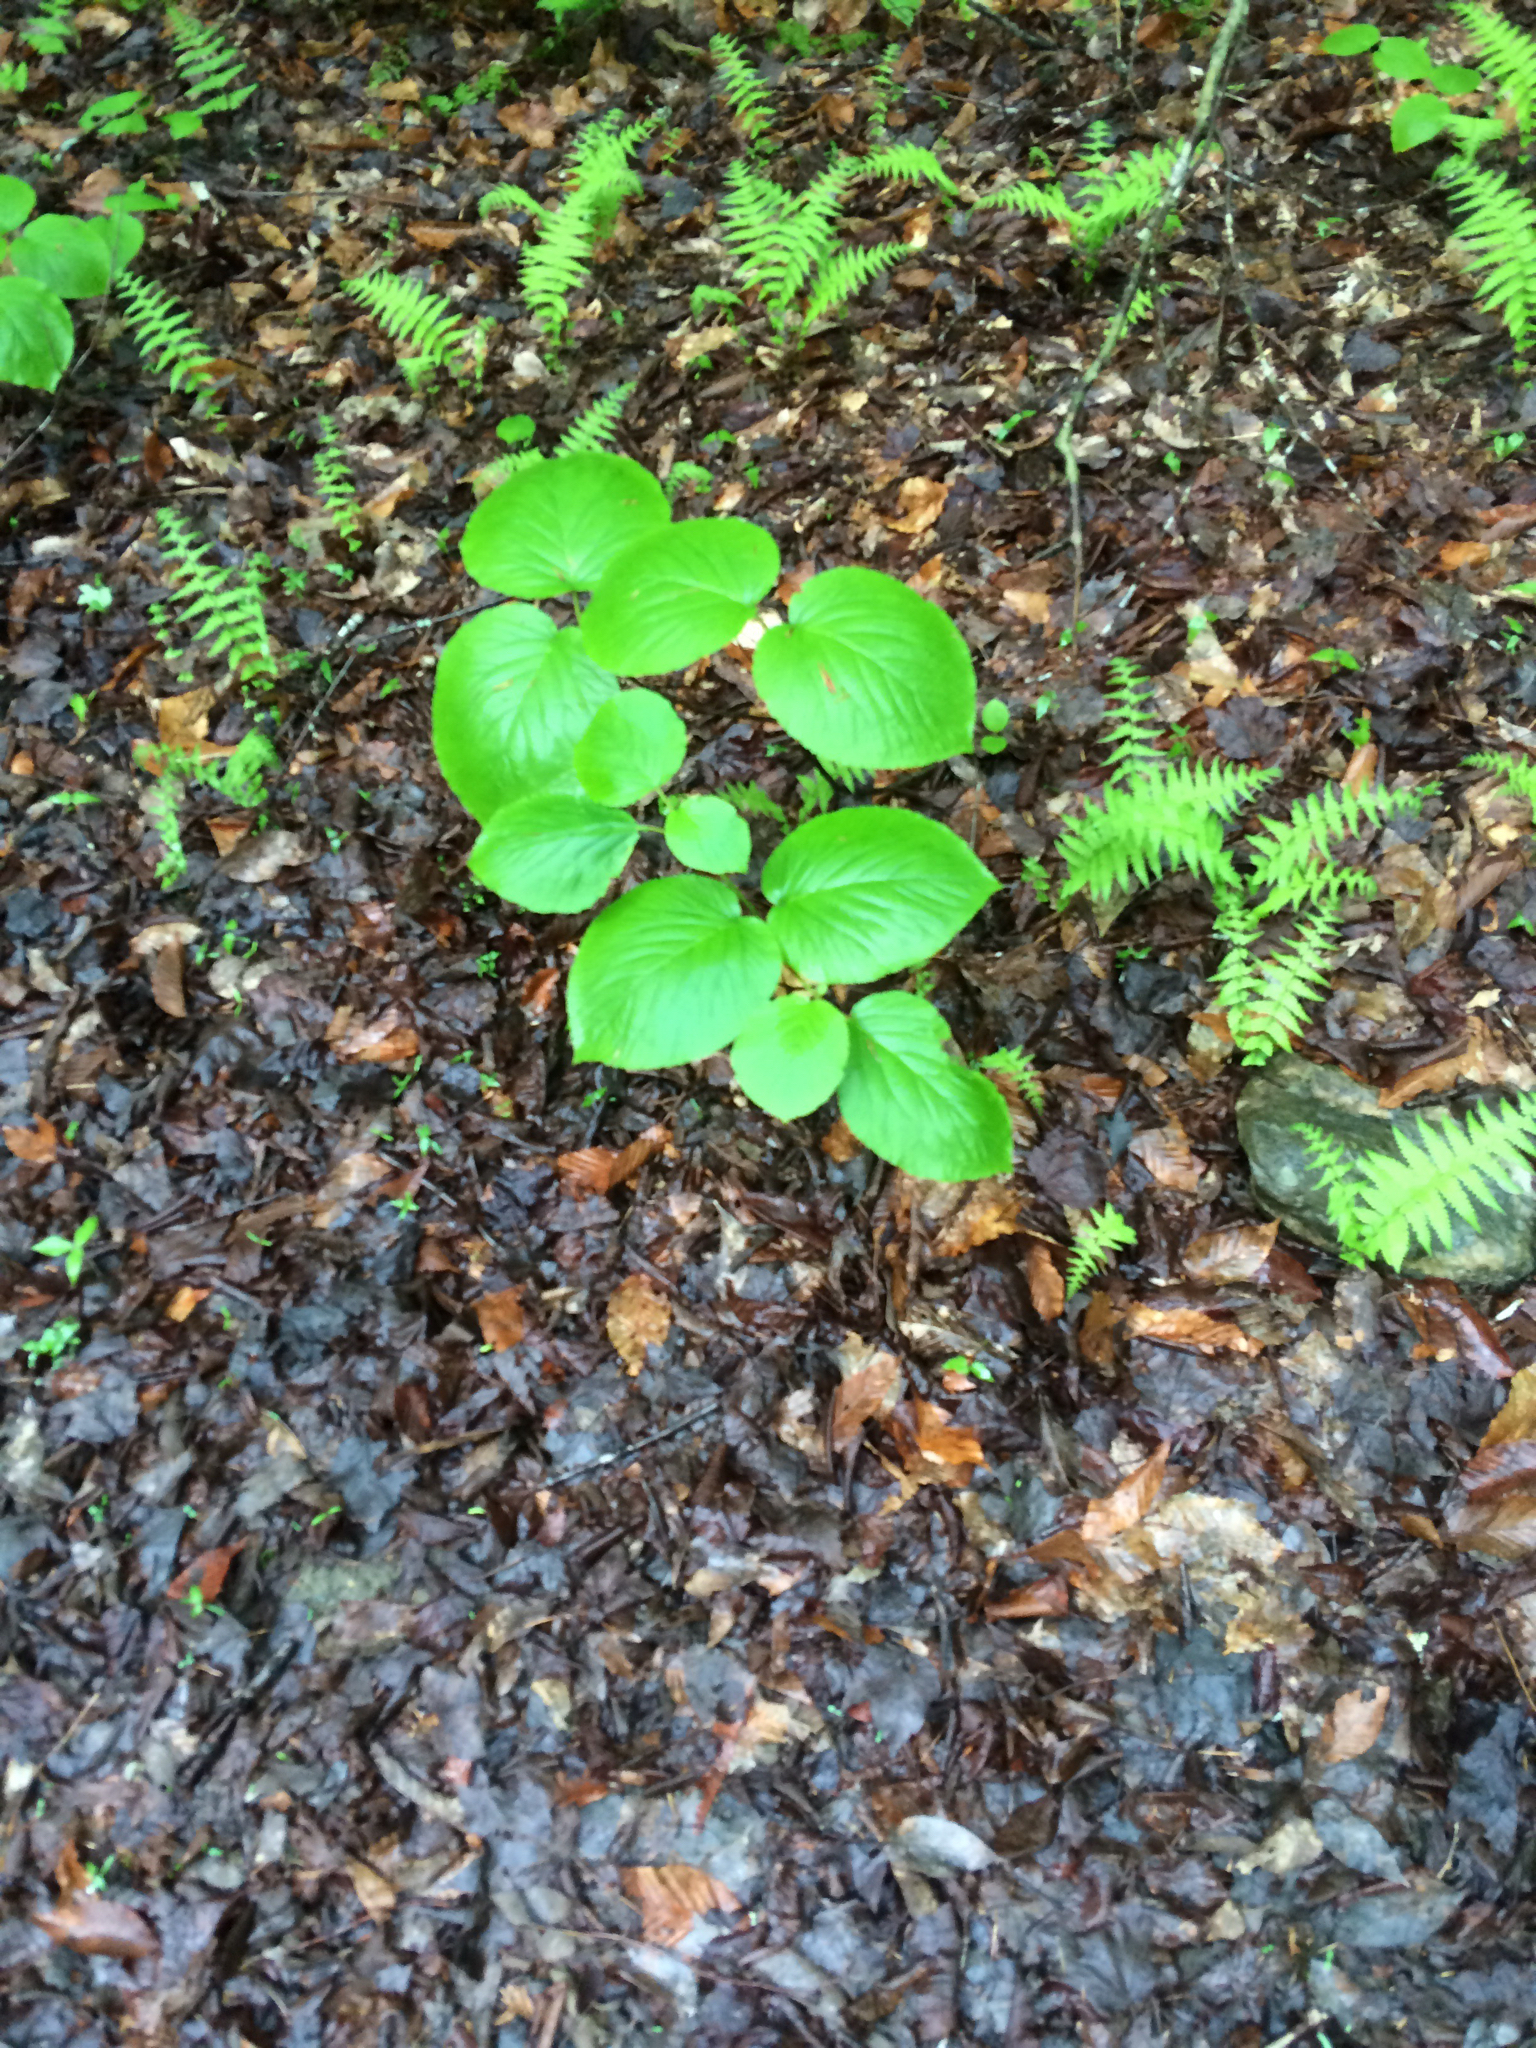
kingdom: Plantae
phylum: Tracheophyta
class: Magnoliopsida
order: Dipsacales
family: Viburnaceae
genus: Viburnum
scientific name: Viburnum lantanoides
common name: Hobblebush
